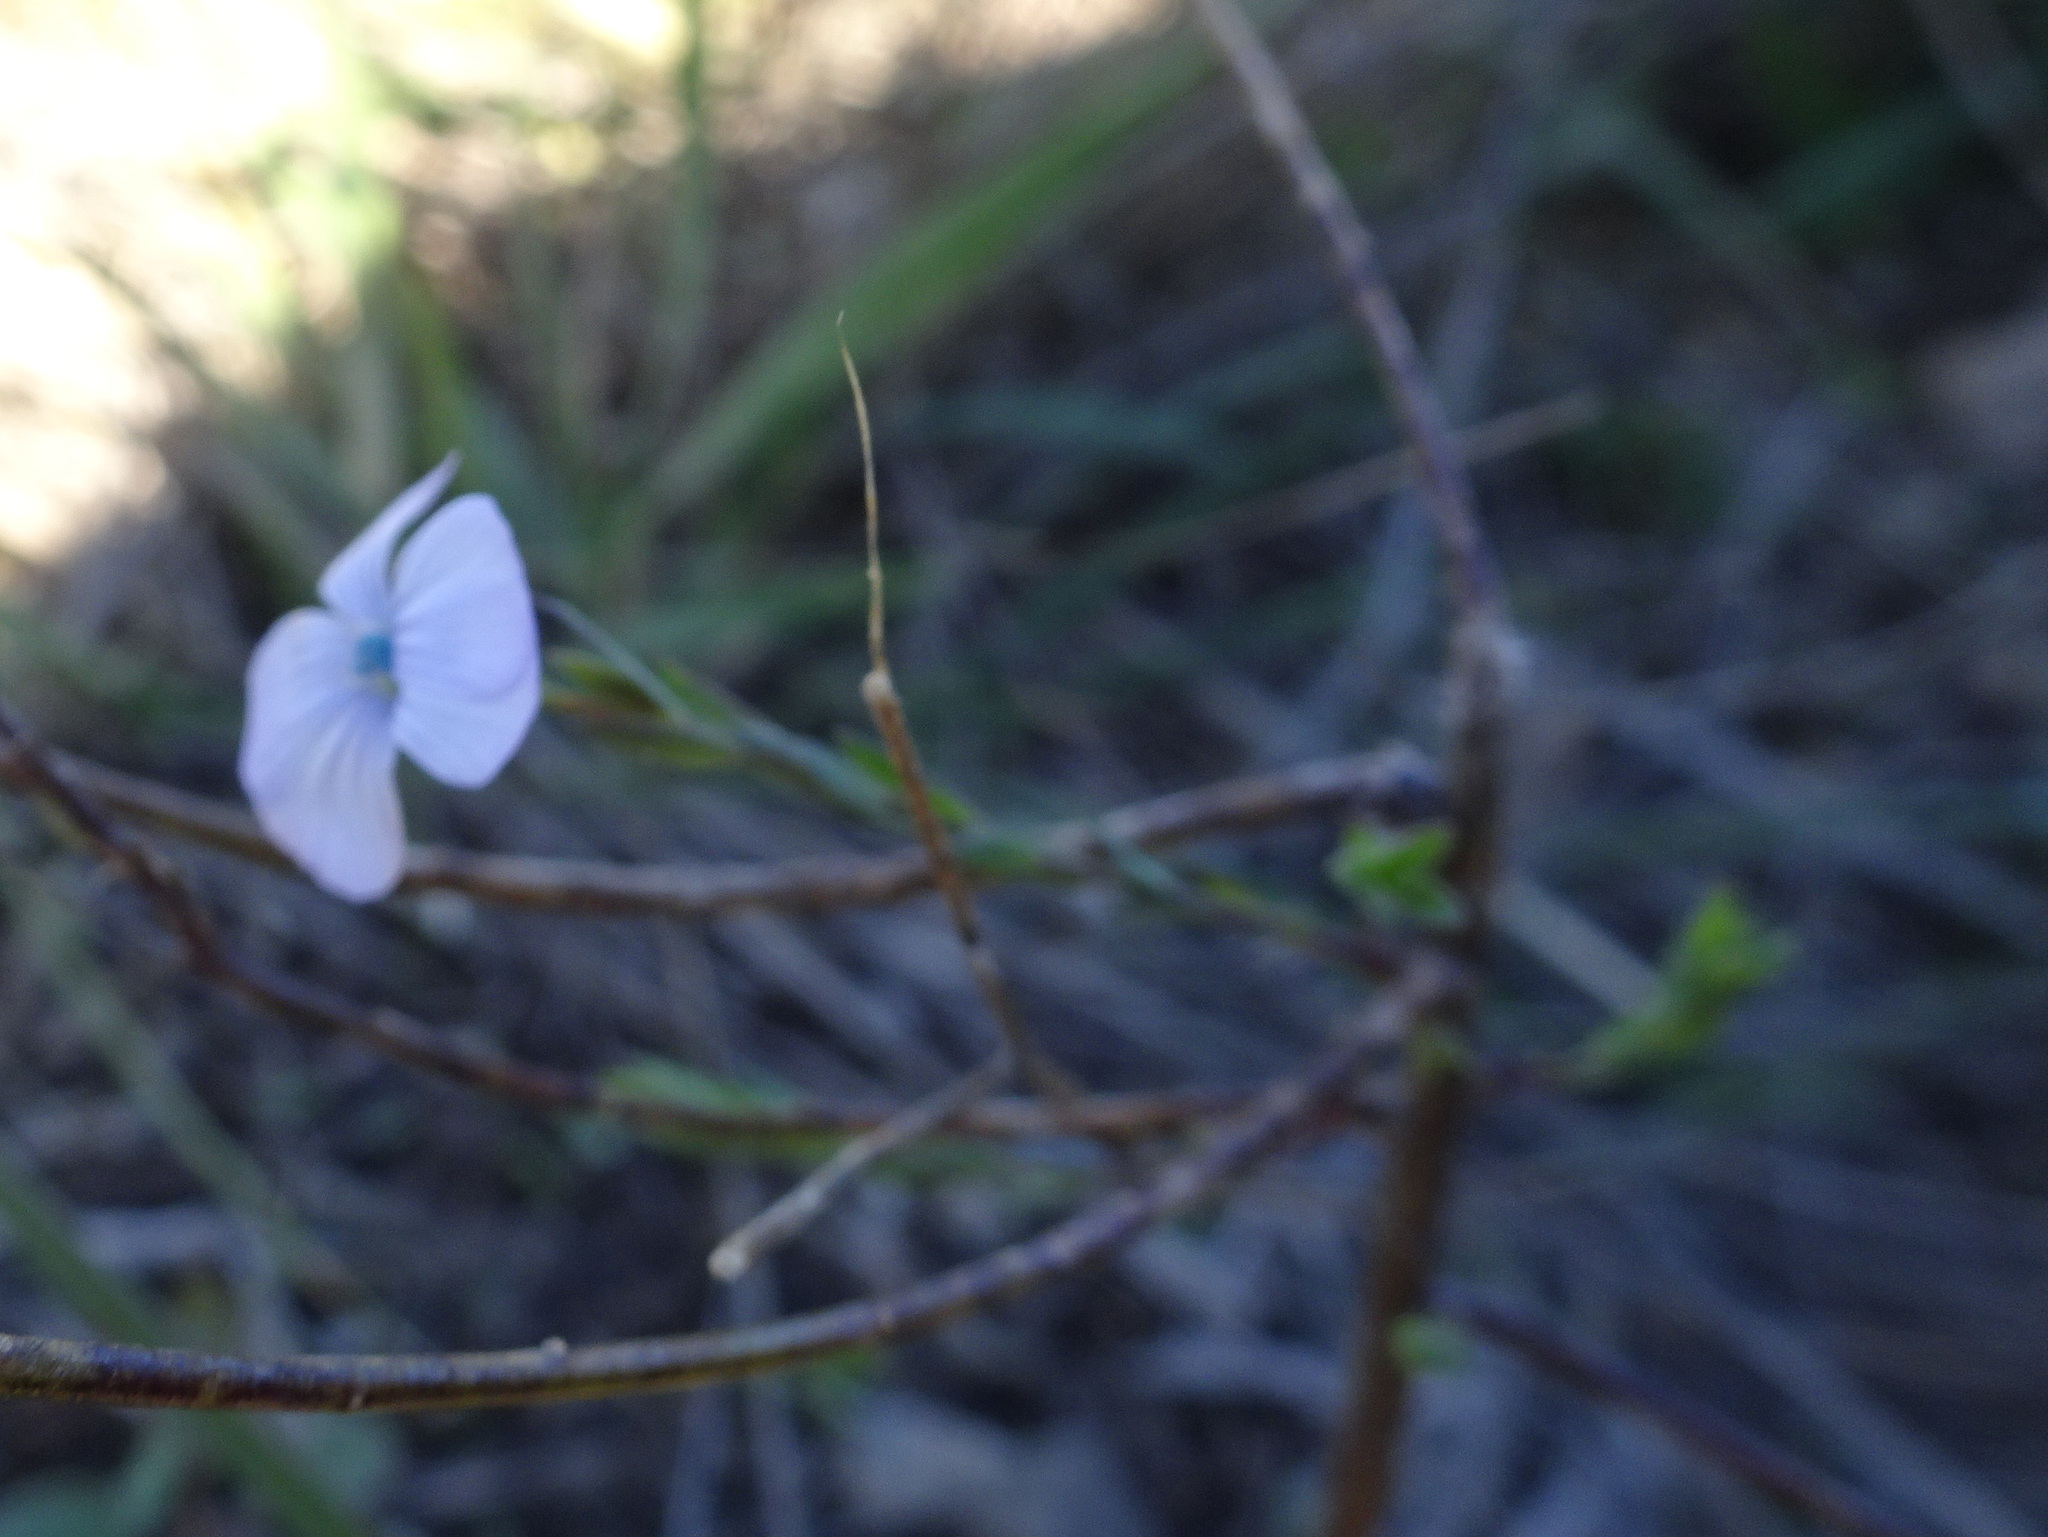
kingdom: Plantae
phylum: Tracheophyta
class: Magnoliopsida
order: Malpighiales
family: Linaceae
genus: Linum
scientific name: Linum bienne
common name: Pale flax
